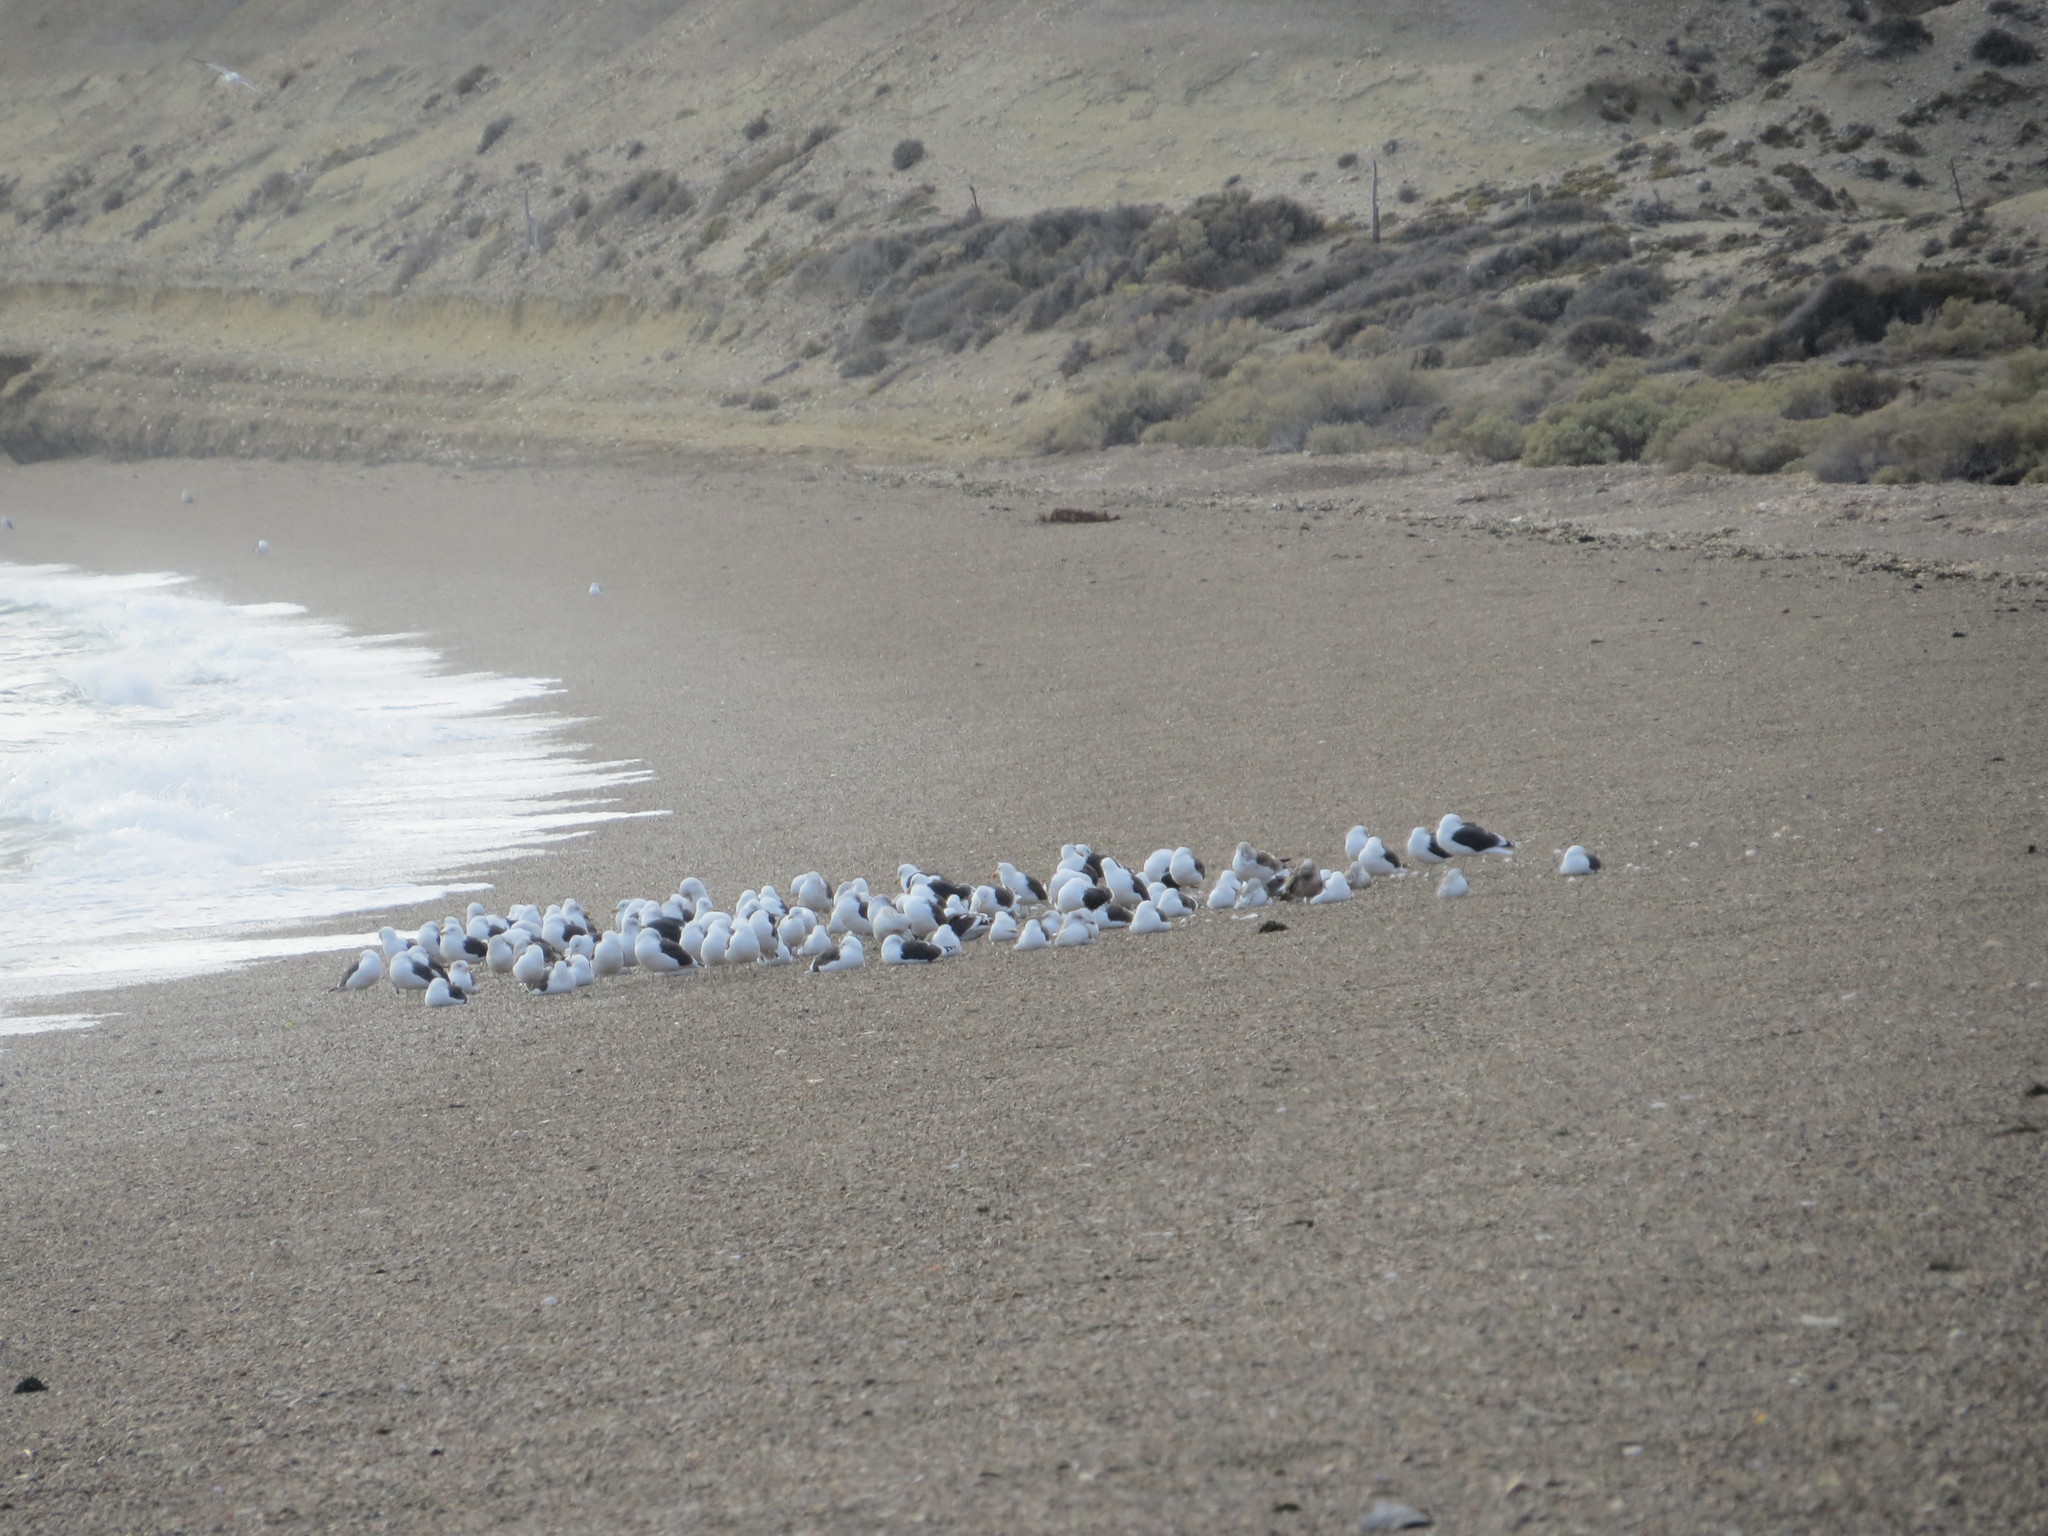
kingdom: Animalia
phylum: Chordata
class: Aves
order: Charadriiformes
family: Laridae
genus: Larus
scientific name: Larus dominicanus
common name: Kelp gull
